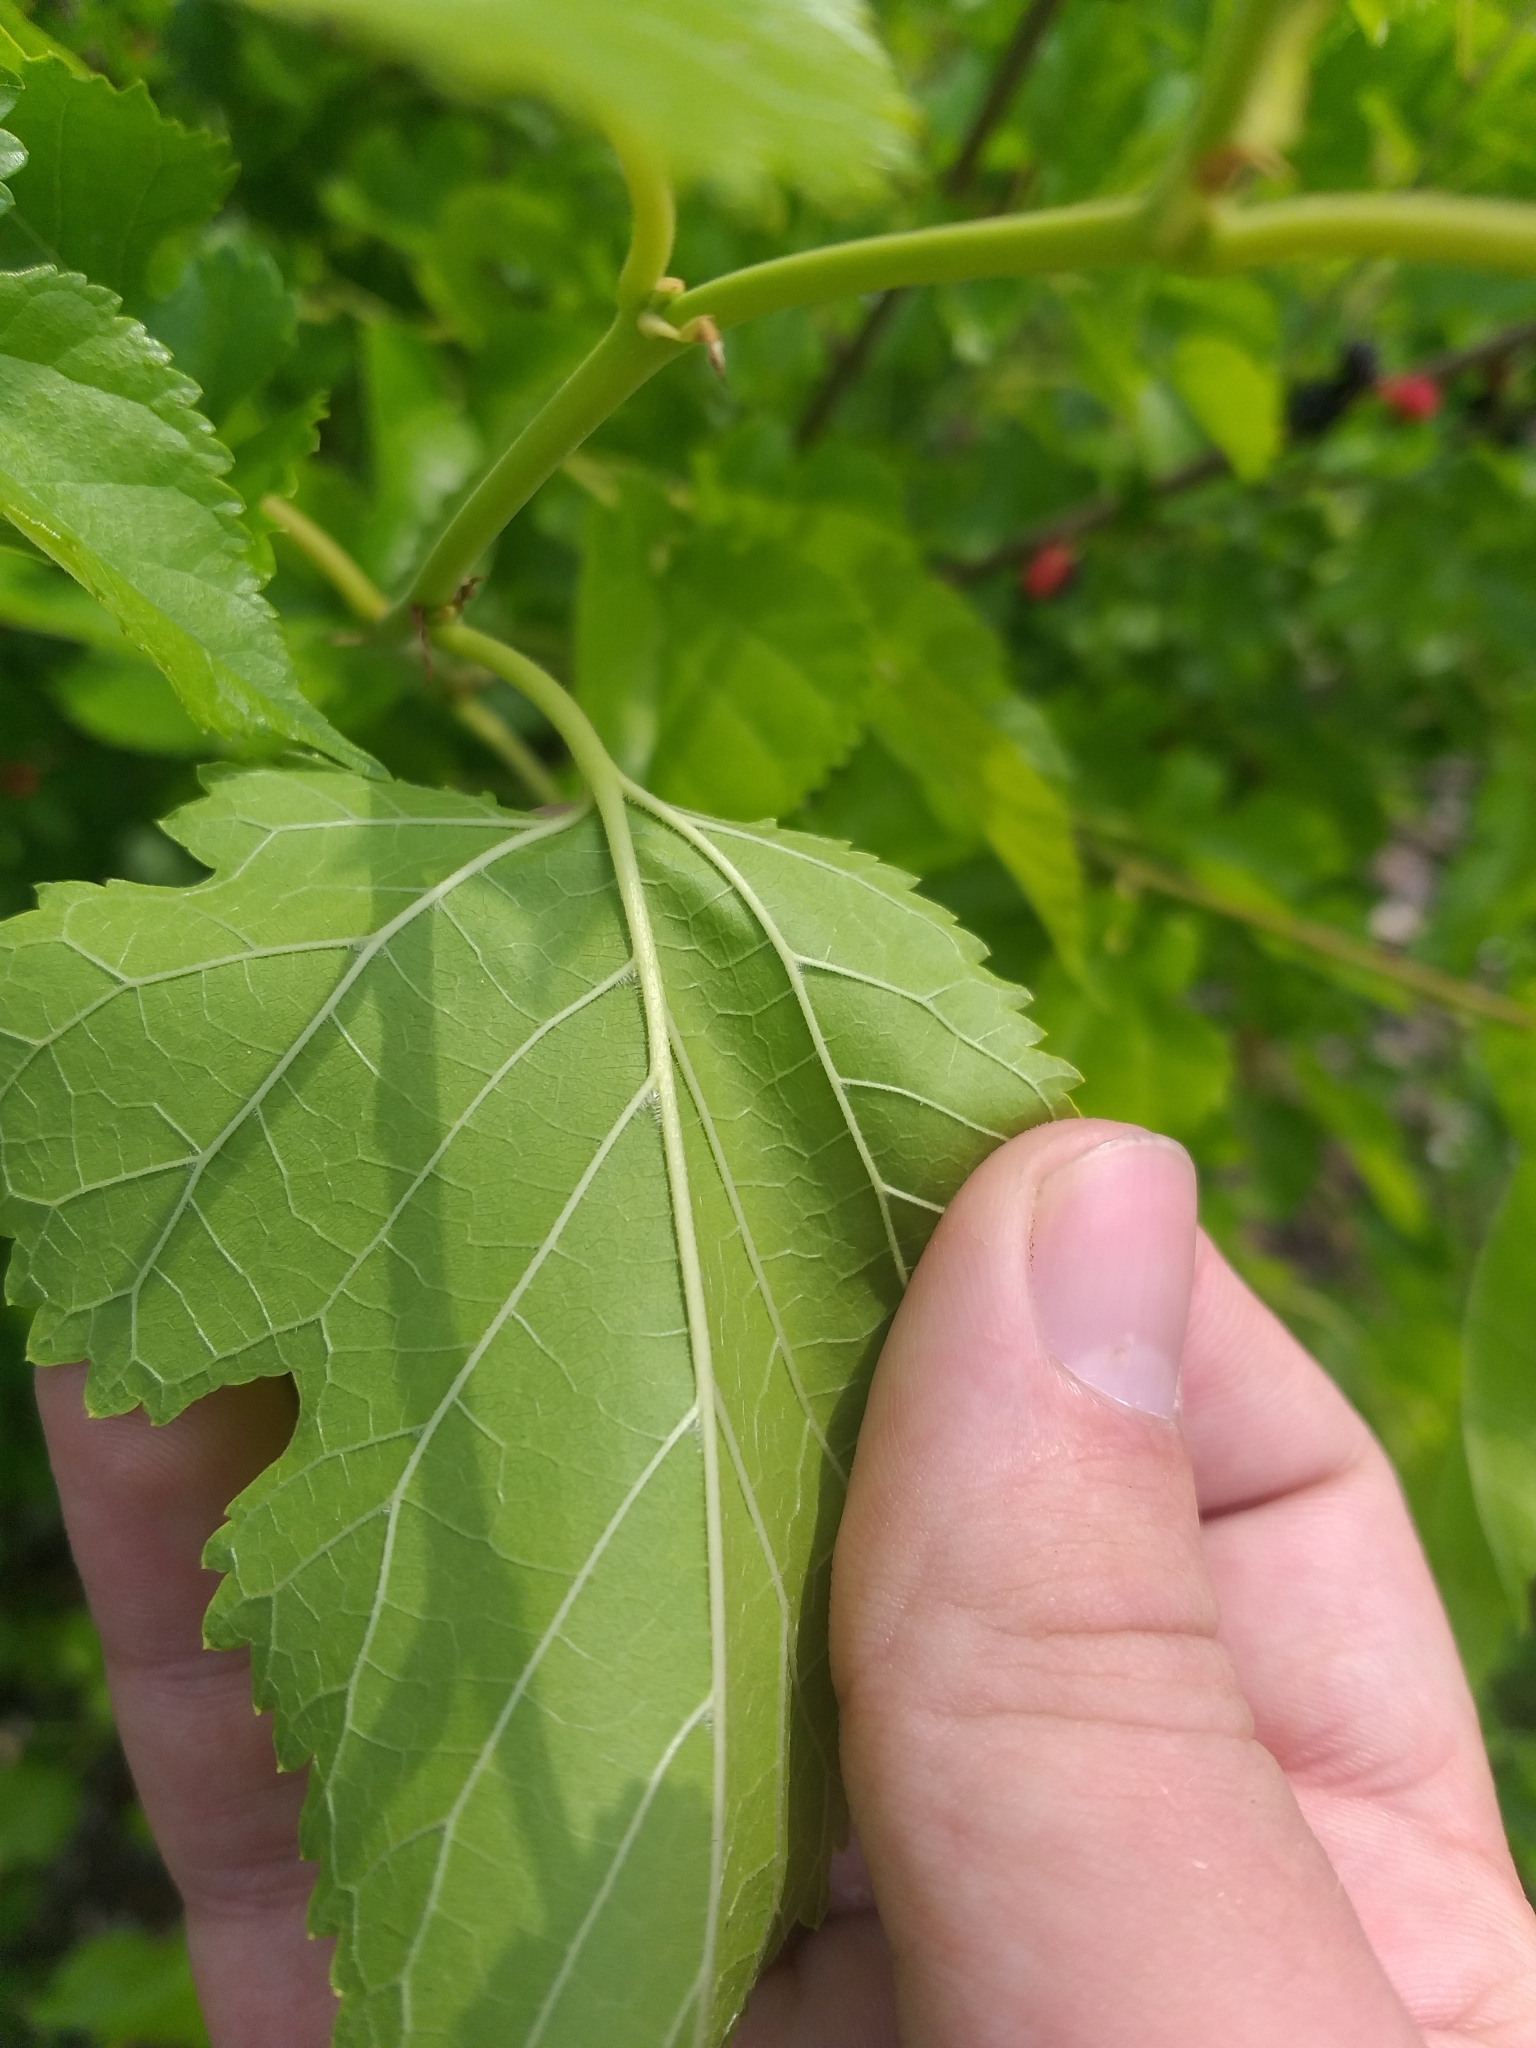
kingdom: Plantae
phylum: Tracheophyta
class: Magnoliopsida
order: Rosales
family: Moraceae
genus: Morus
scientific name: Morus alba
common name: White mulberry
